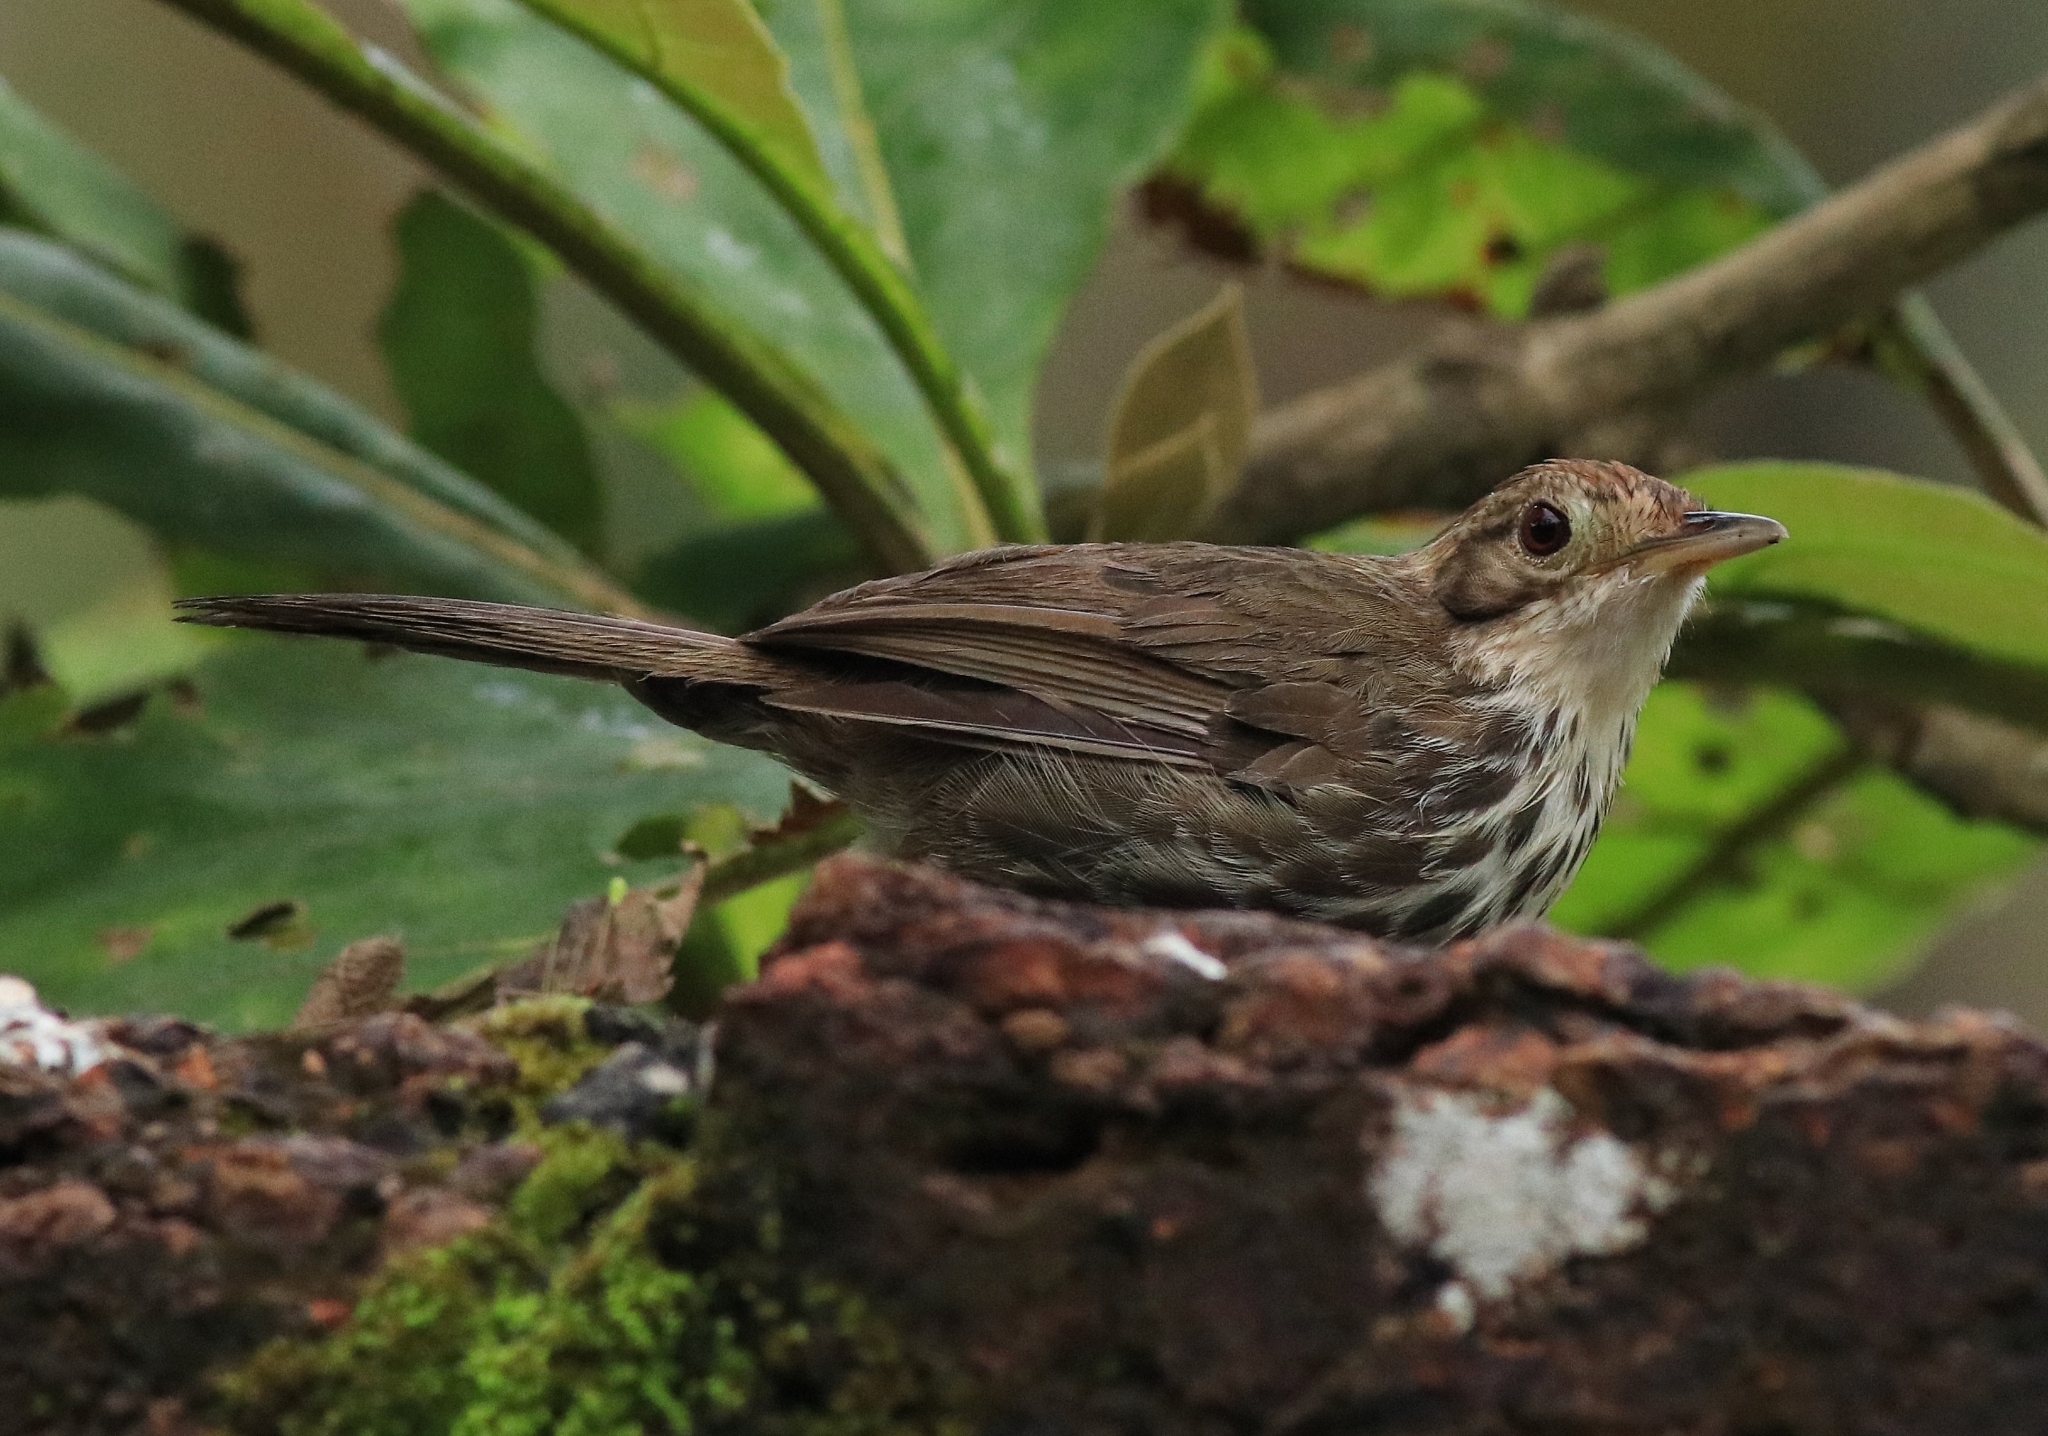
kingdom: Animalia
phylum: Chordata
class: Aves
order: Passeriformes
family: Pellorneidae
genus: Pellorneum
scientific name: Pellorneum ruficeps
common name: Puff-throated babbler
